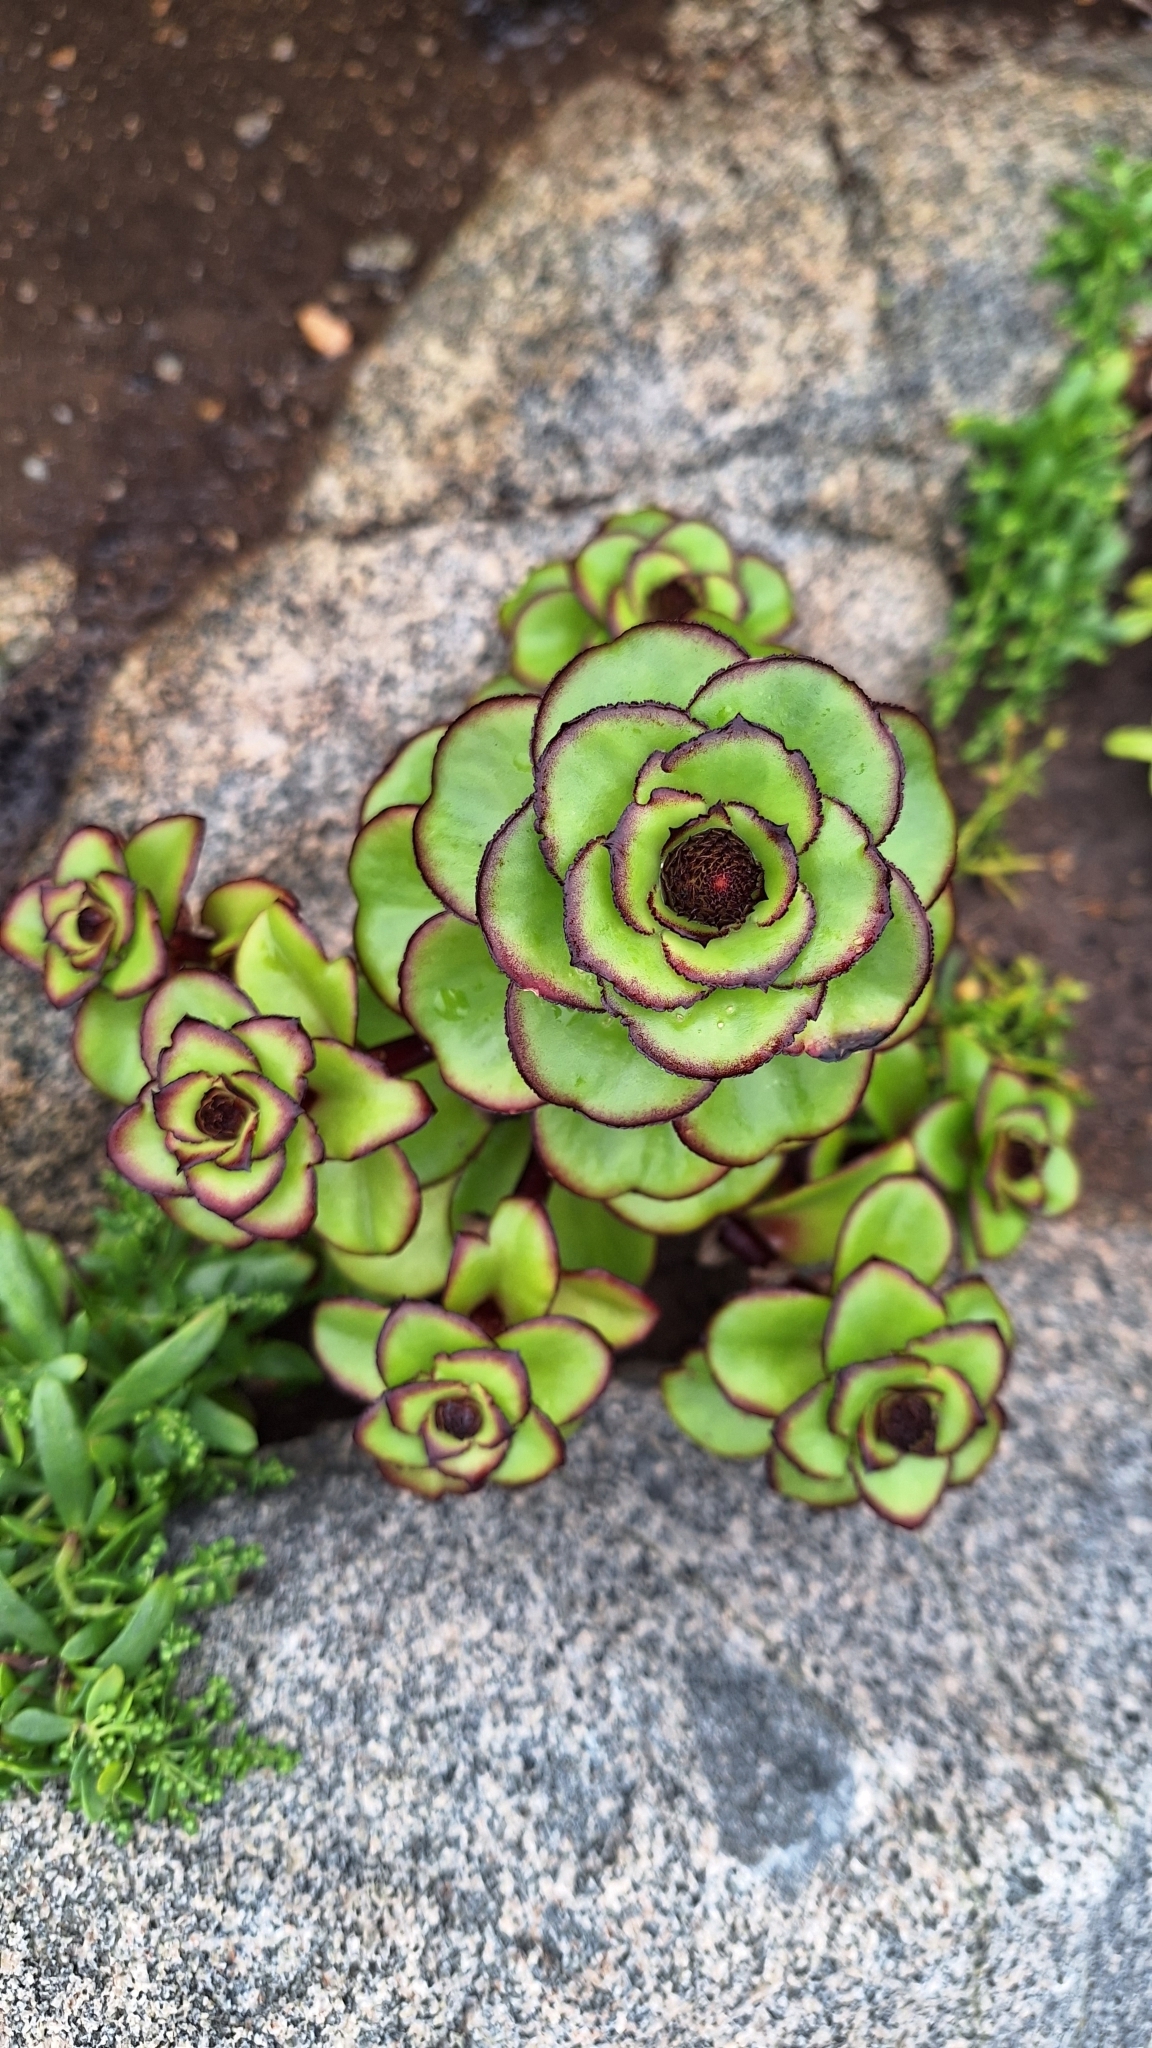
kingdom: Plantae
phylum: Tracheophyta
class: Magnoliopsida
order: Saxifragales
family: Crassulaceae
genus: Orostachys
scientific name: Orostachys maximowiczii
